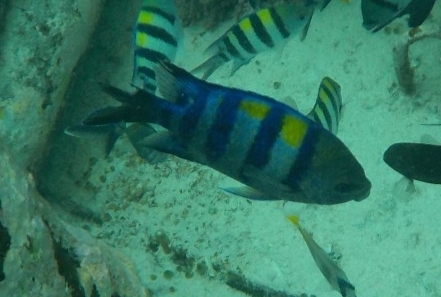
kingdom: Animalia
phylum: Chordata
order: Perciformes
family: Pomacentridae
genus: Abudefduf
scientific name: Abudefduf vaigiensis
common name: Indo-pacific sergeant
